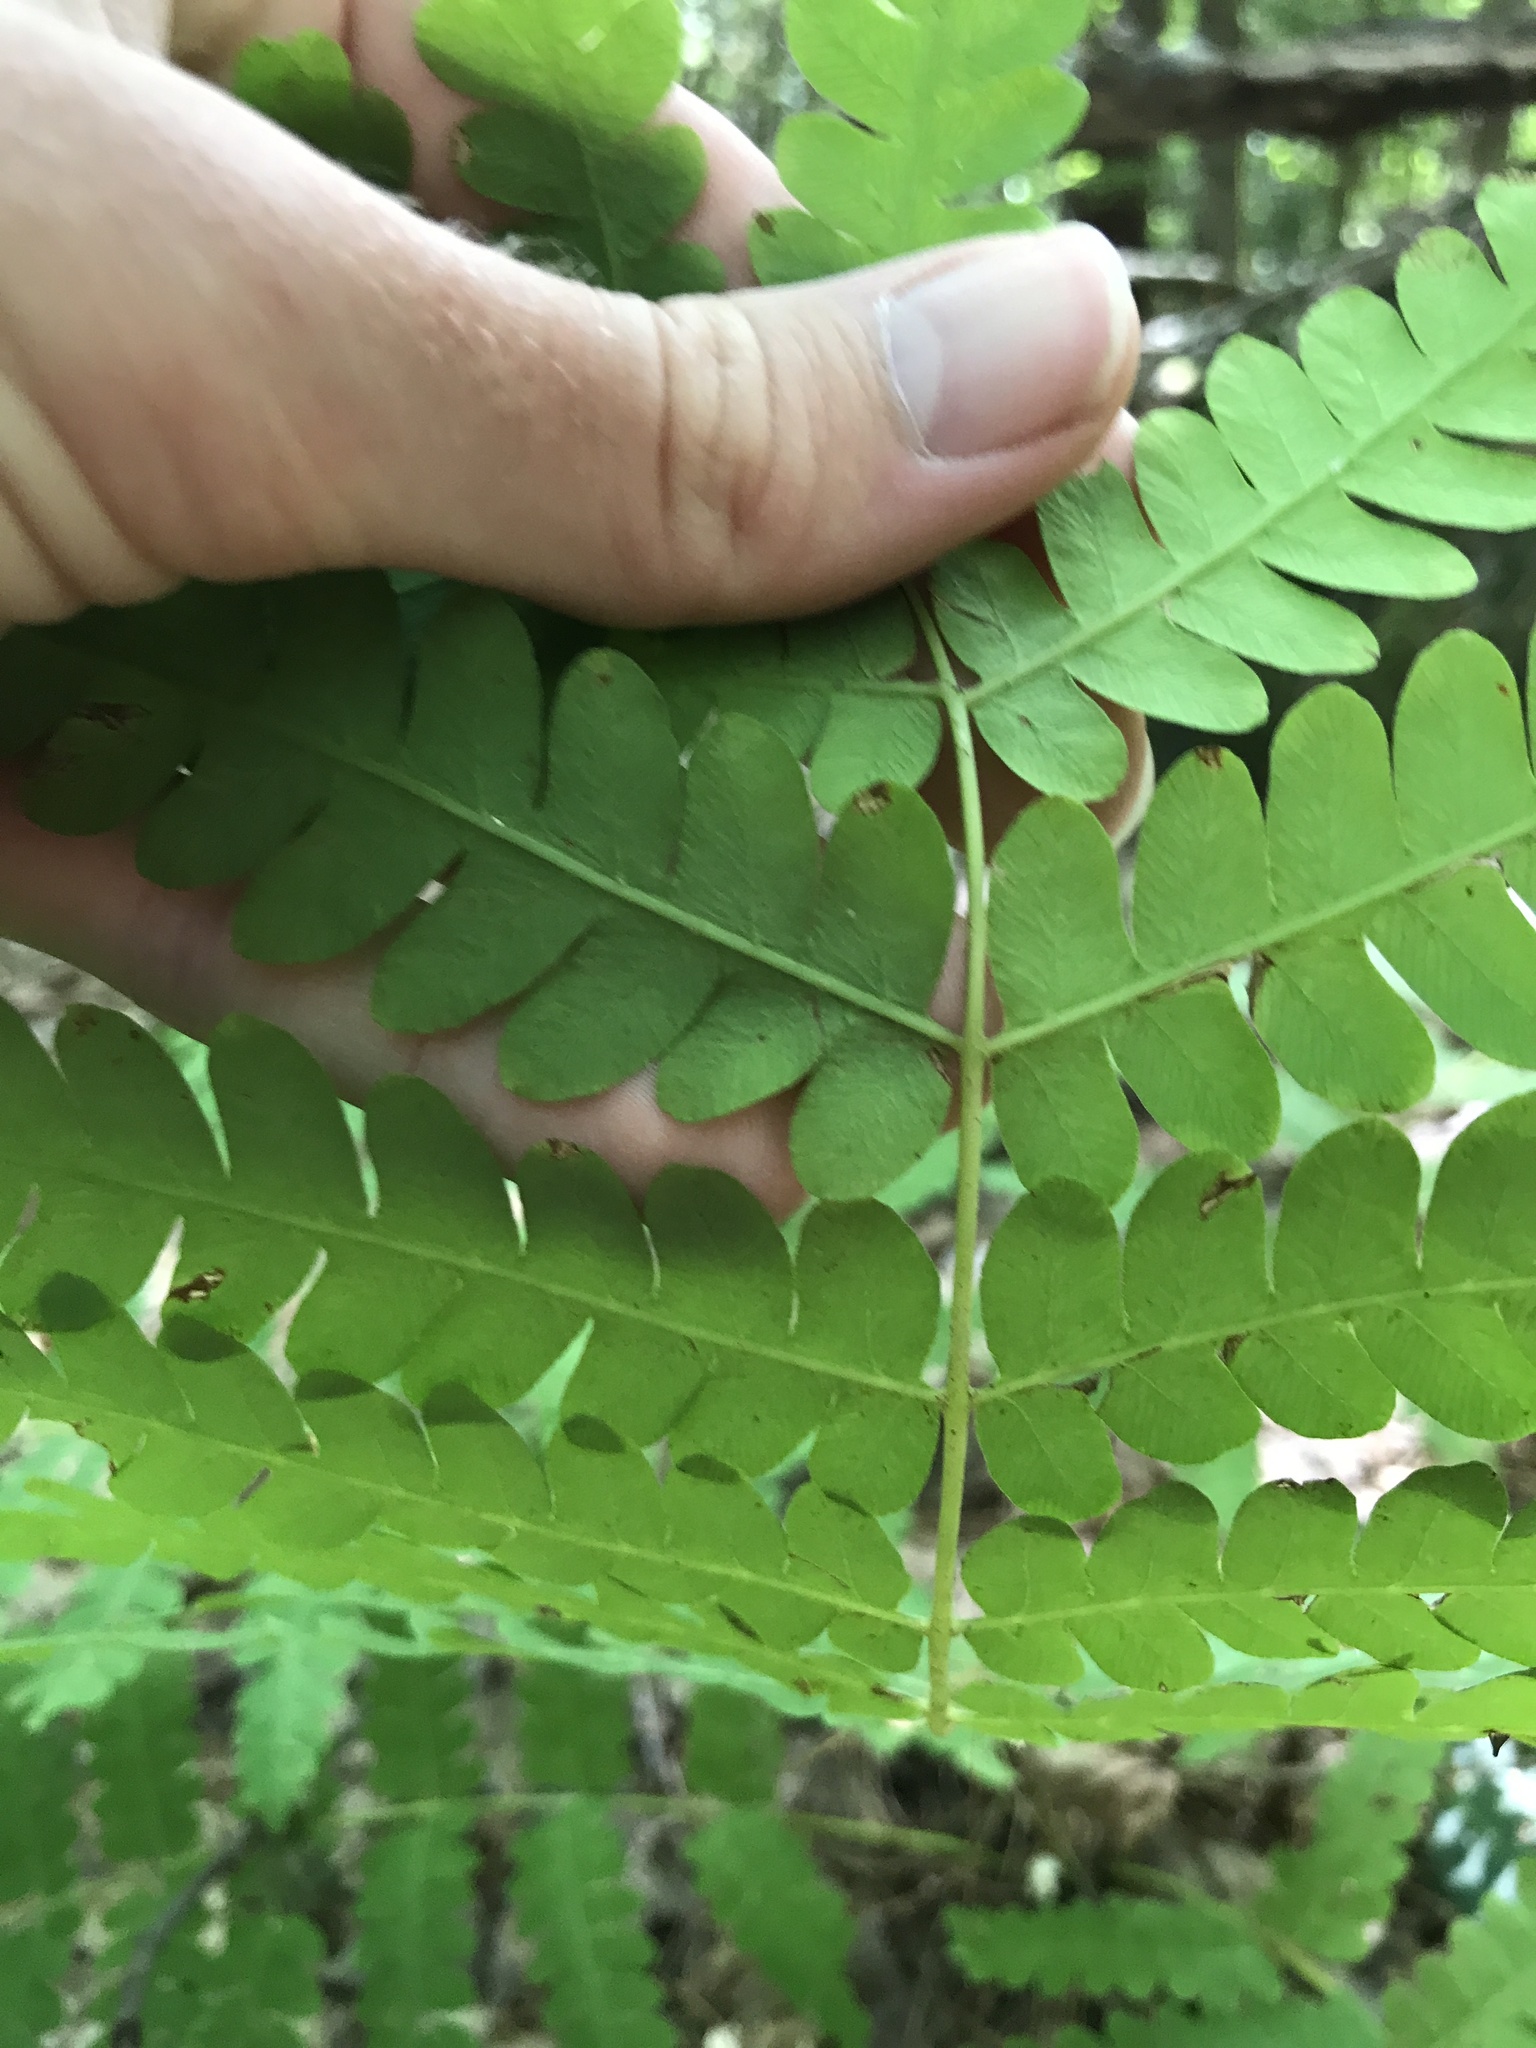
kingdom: Plantae
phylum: Tracheophyta
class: Polypodiopsida
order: Osmundales
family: Osmundaceae
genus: Claytosmunda
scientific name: Claytosmunda claytoniana
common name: Clayton's fern
